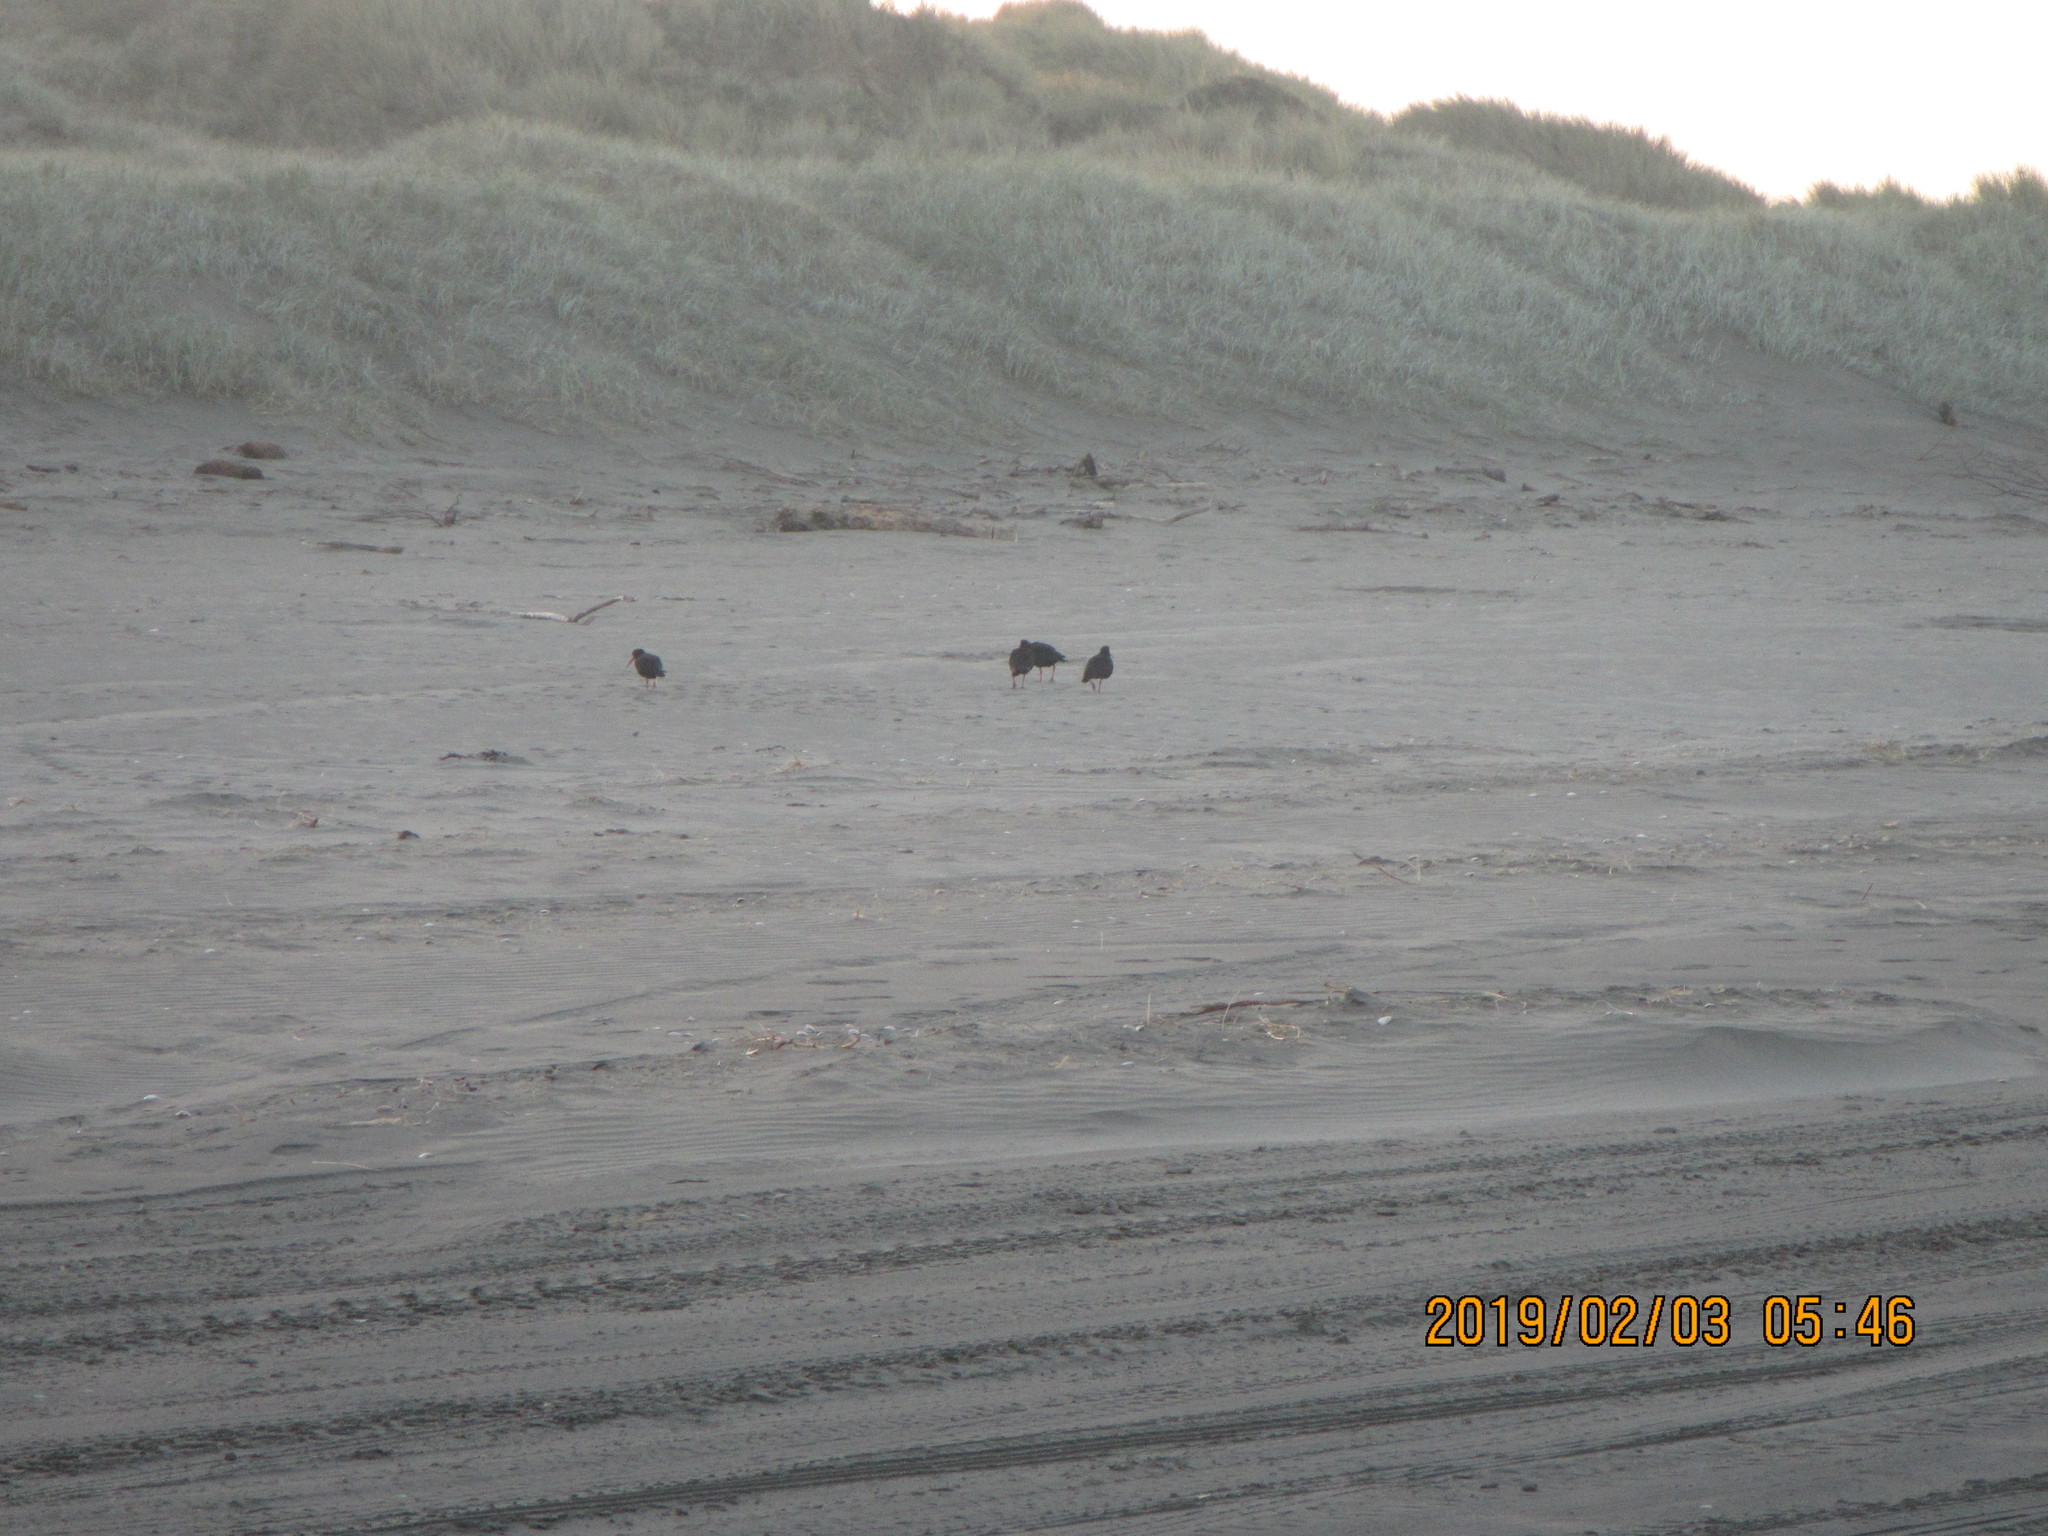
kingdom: Animalia
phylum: Chordata
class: Aves
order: Charadriiformes
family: Haematopodidae
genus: Haematopus
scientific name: Haematopus unicolor
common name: Variable oystercatcher
